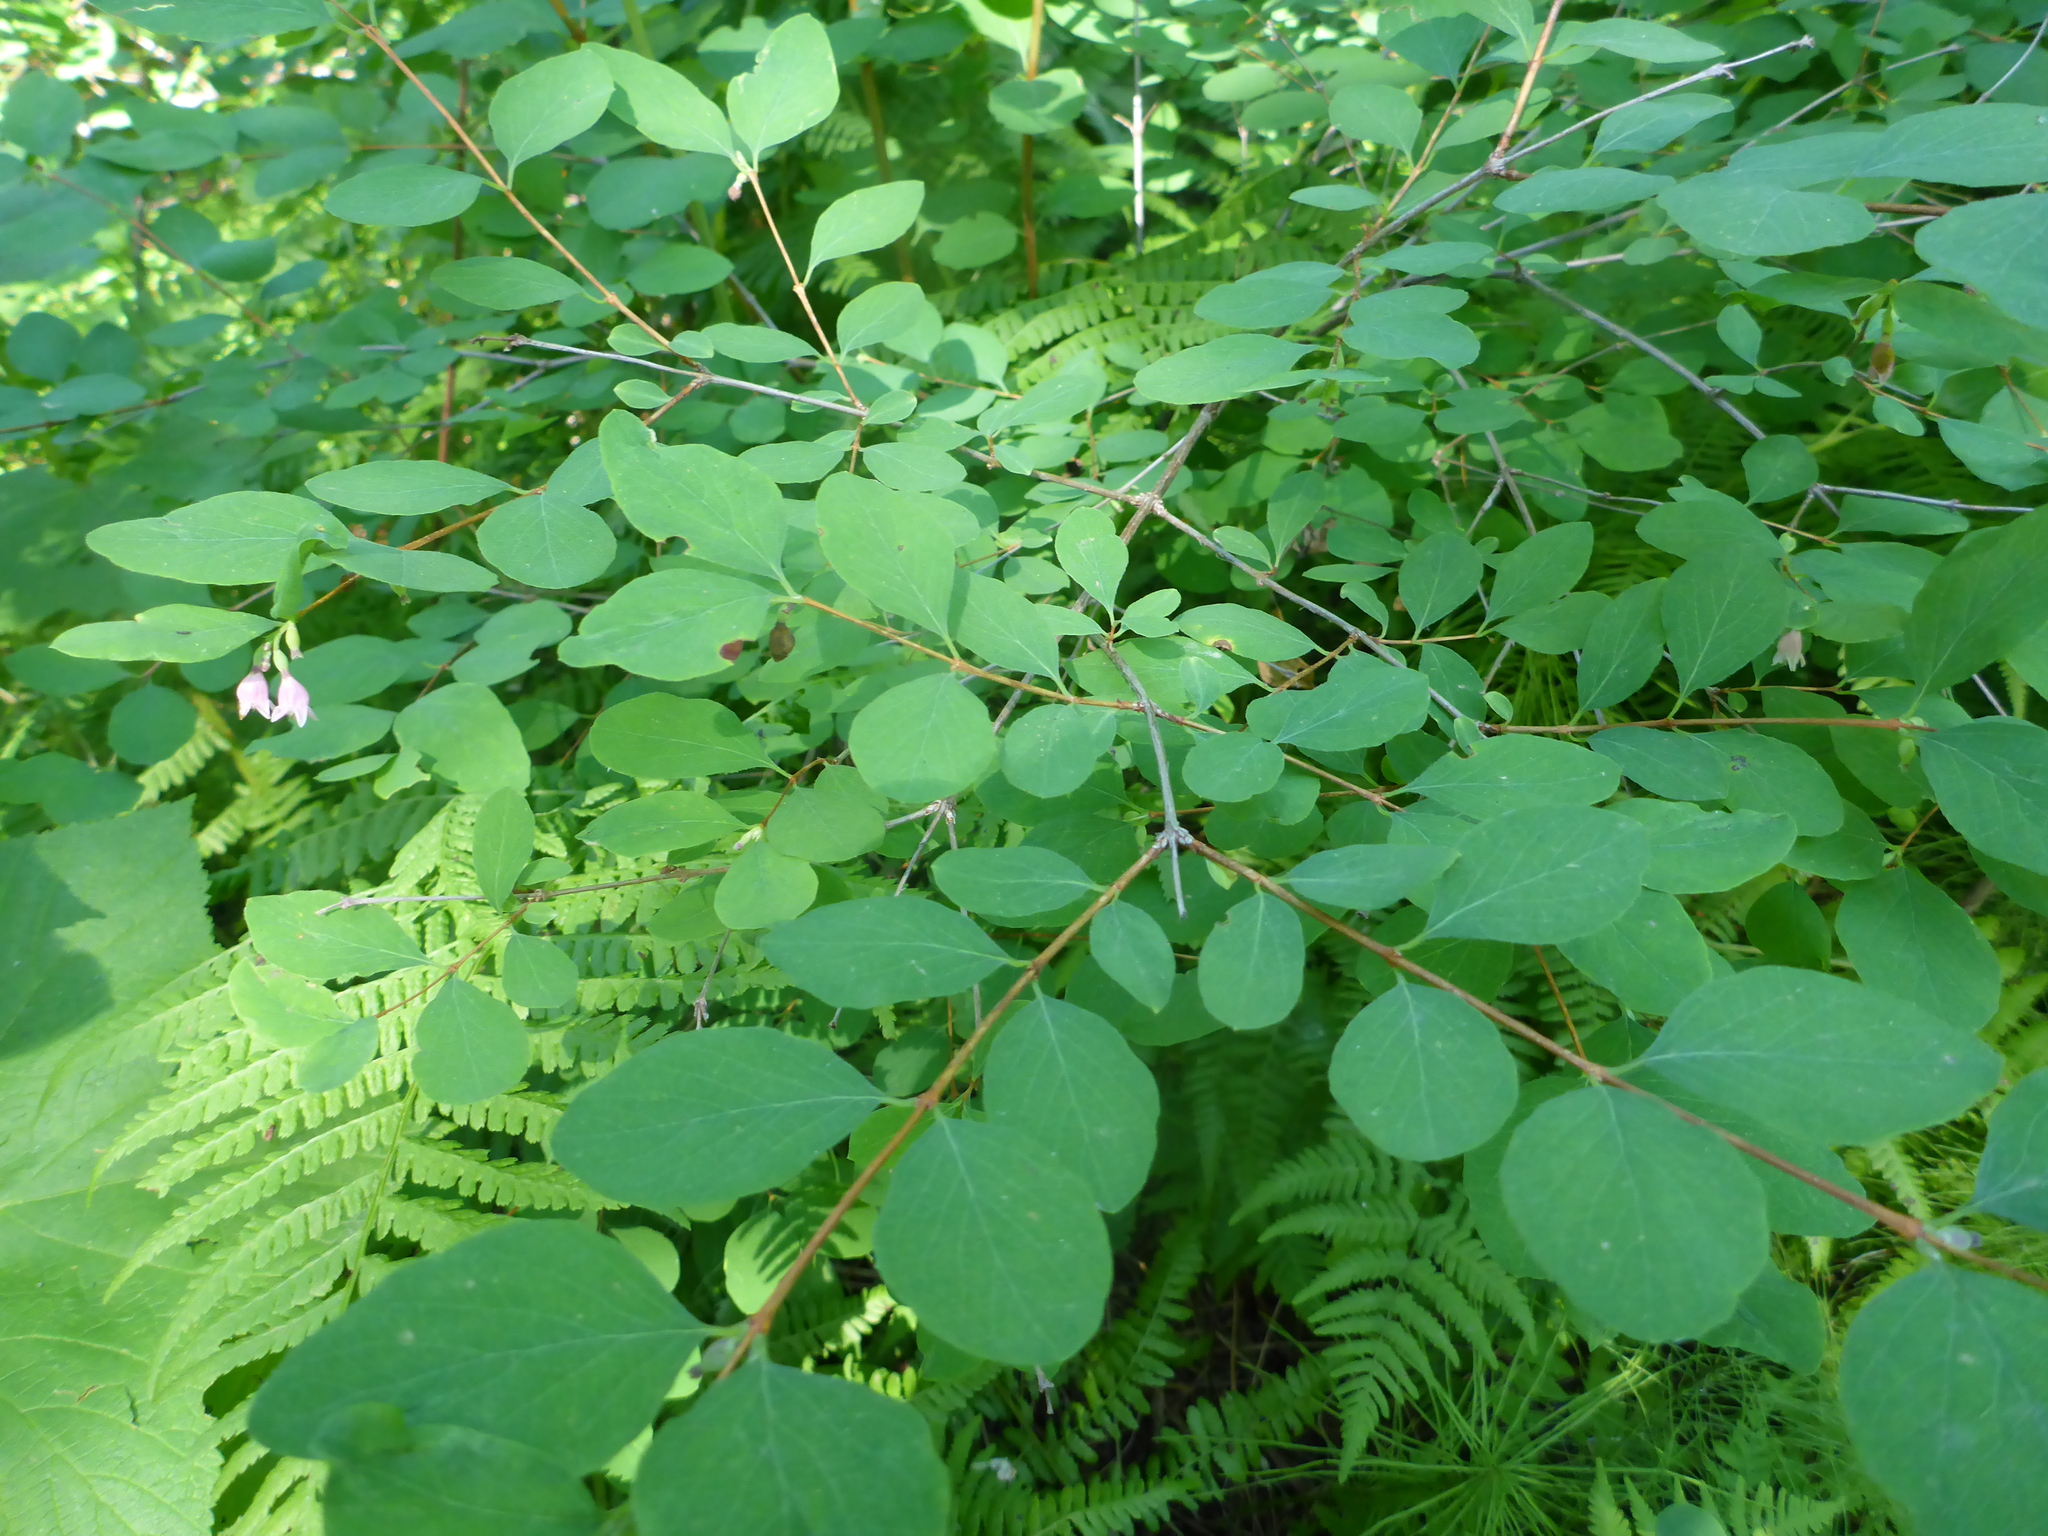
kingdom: Plantae
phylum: Tracheophyta
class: Magnoliopsida
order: Dipsacales
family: Caprifoliaceae
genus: Symphoricarpos
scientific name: Symphoricarpos albus
